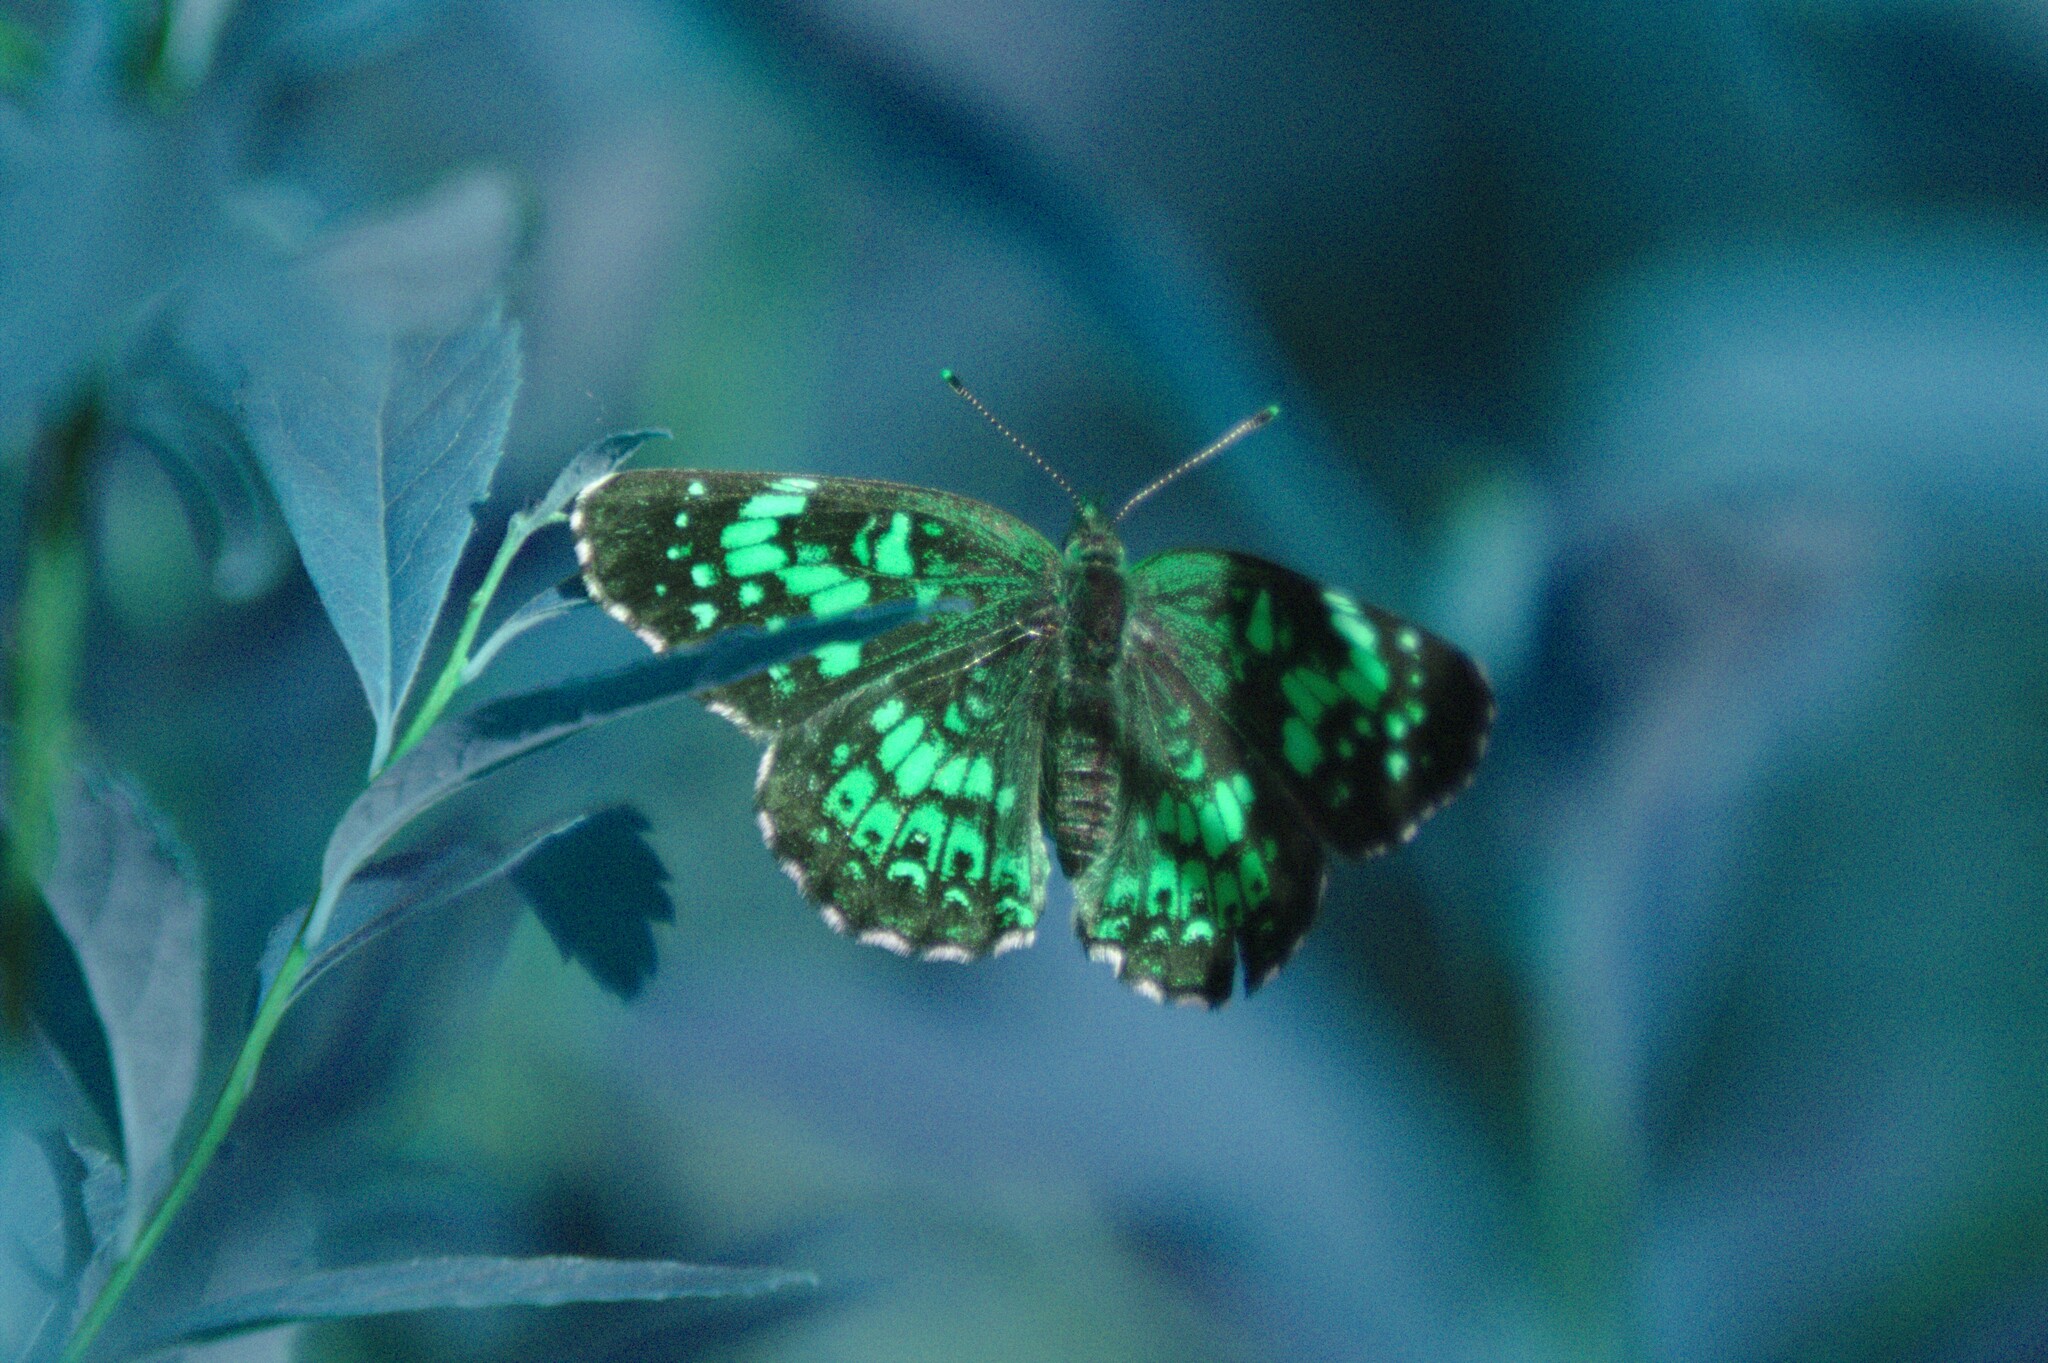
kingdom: Animalia
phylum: Arthropoda
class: Insecta
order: Lepidoptera
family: Nymphalidae
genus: Chlosyne
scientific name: Chlosyne harrisii
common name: Harris's checkerspot
